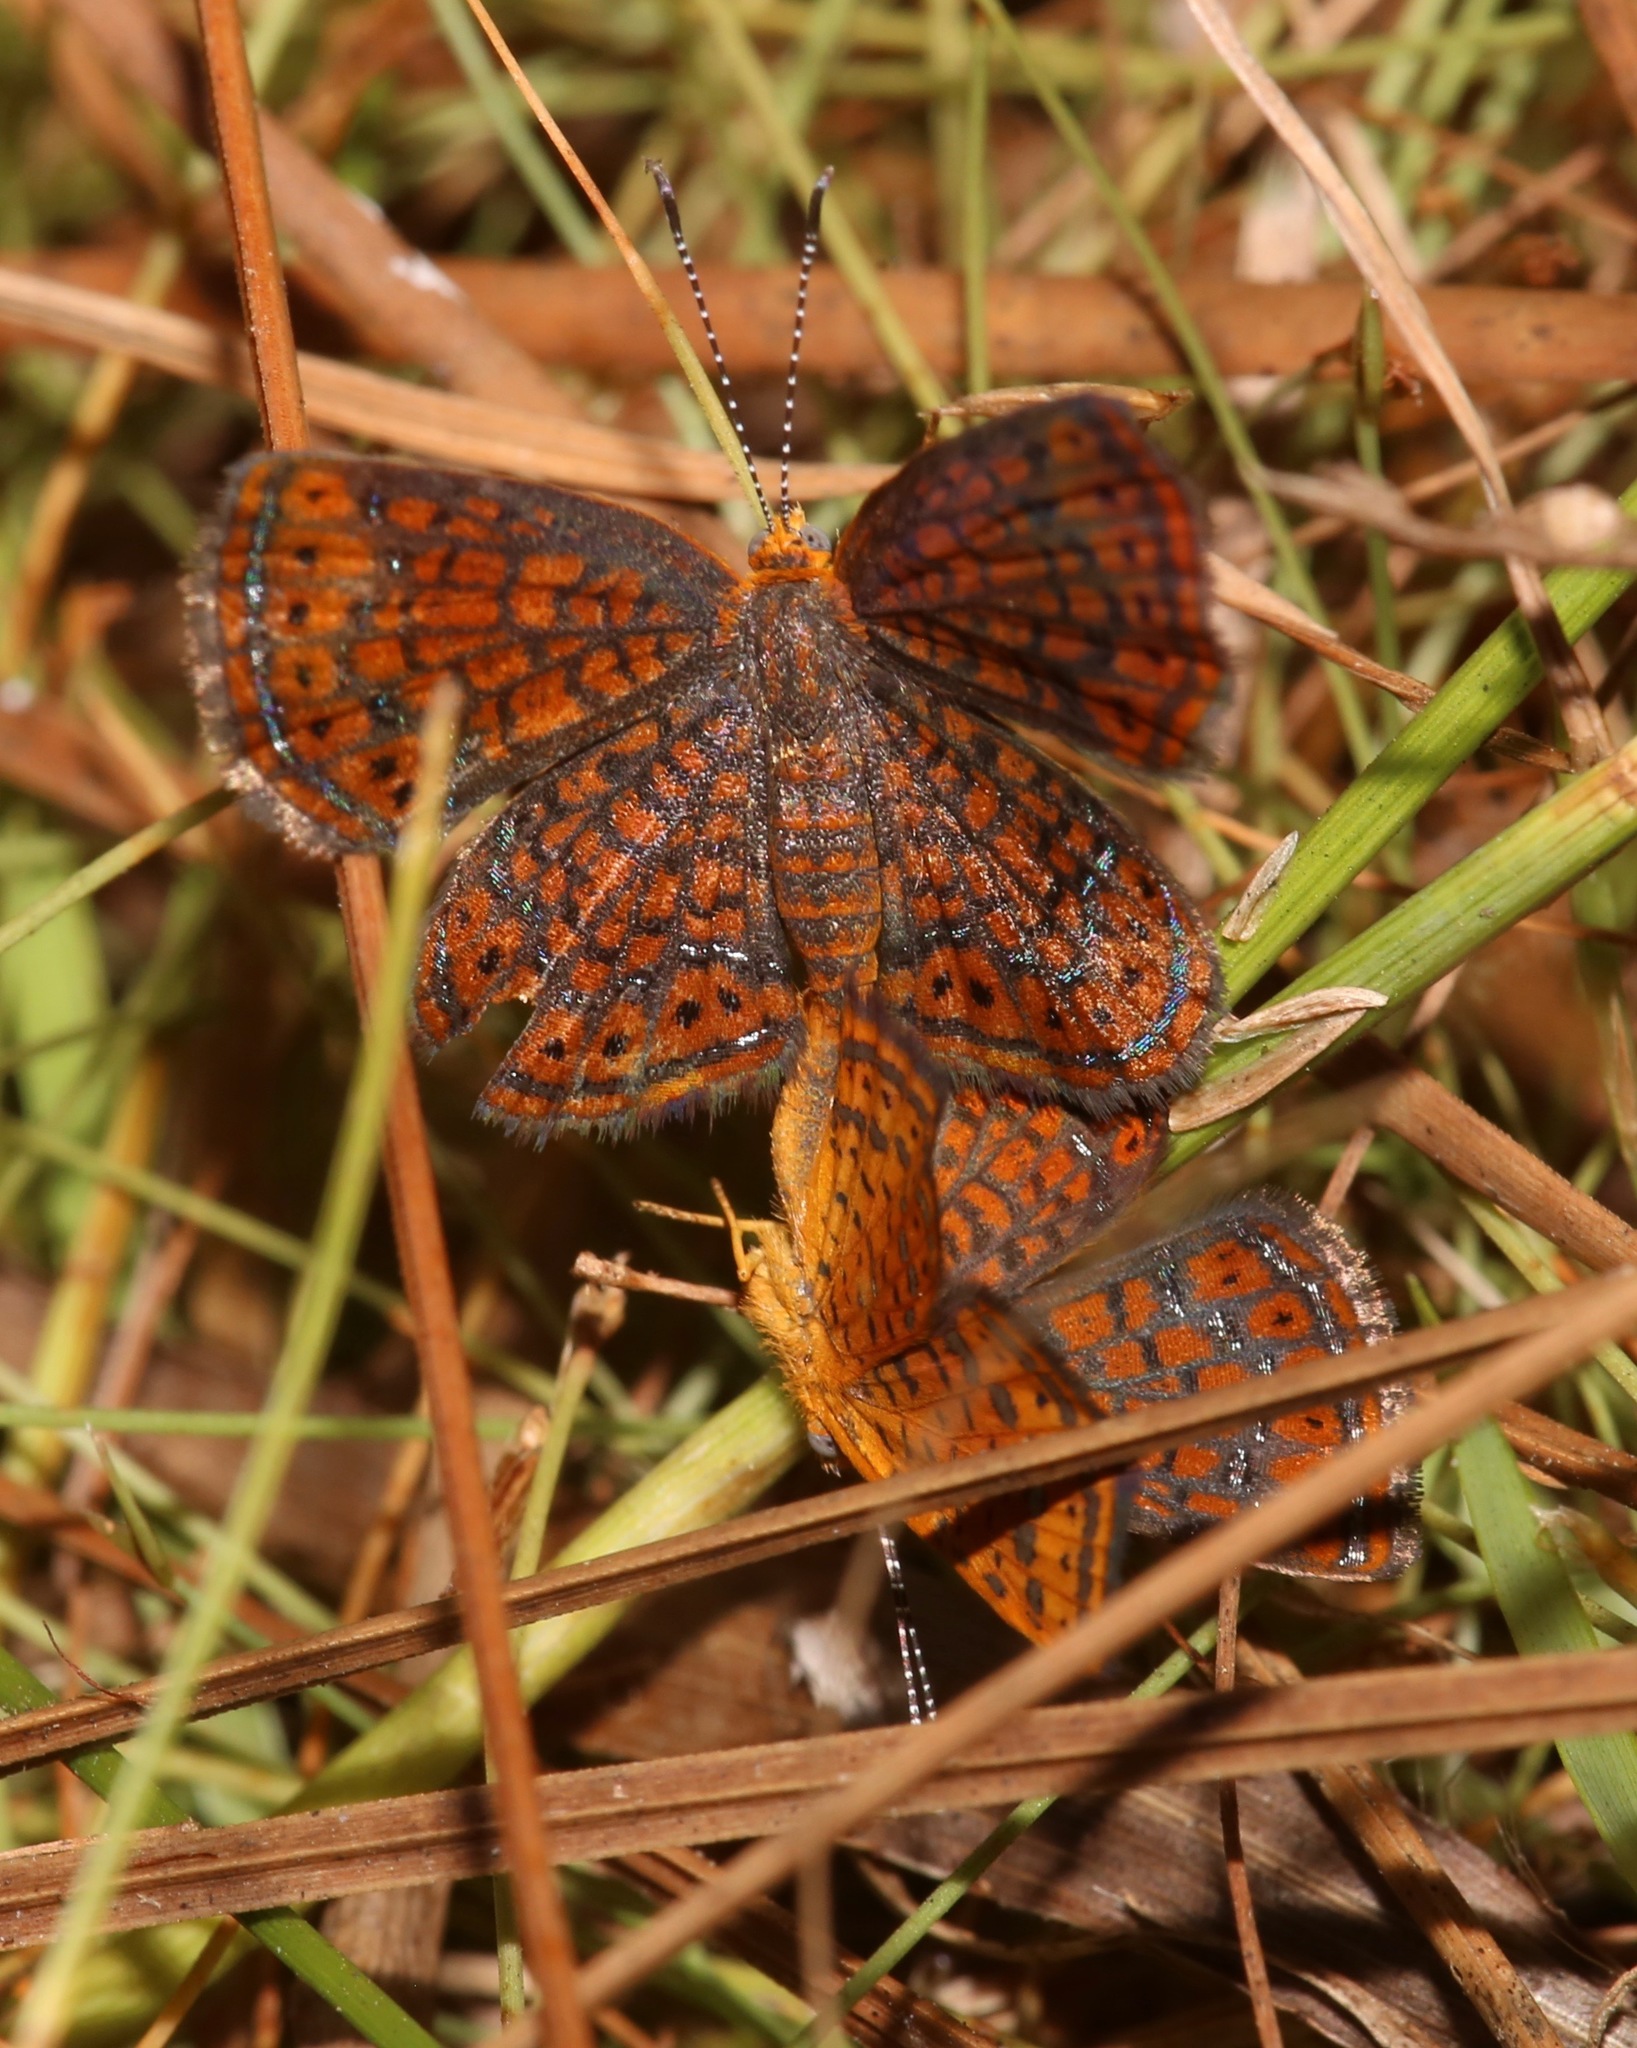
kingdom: Animalia
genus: Calephelis
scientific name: Calephelis virginiensis
